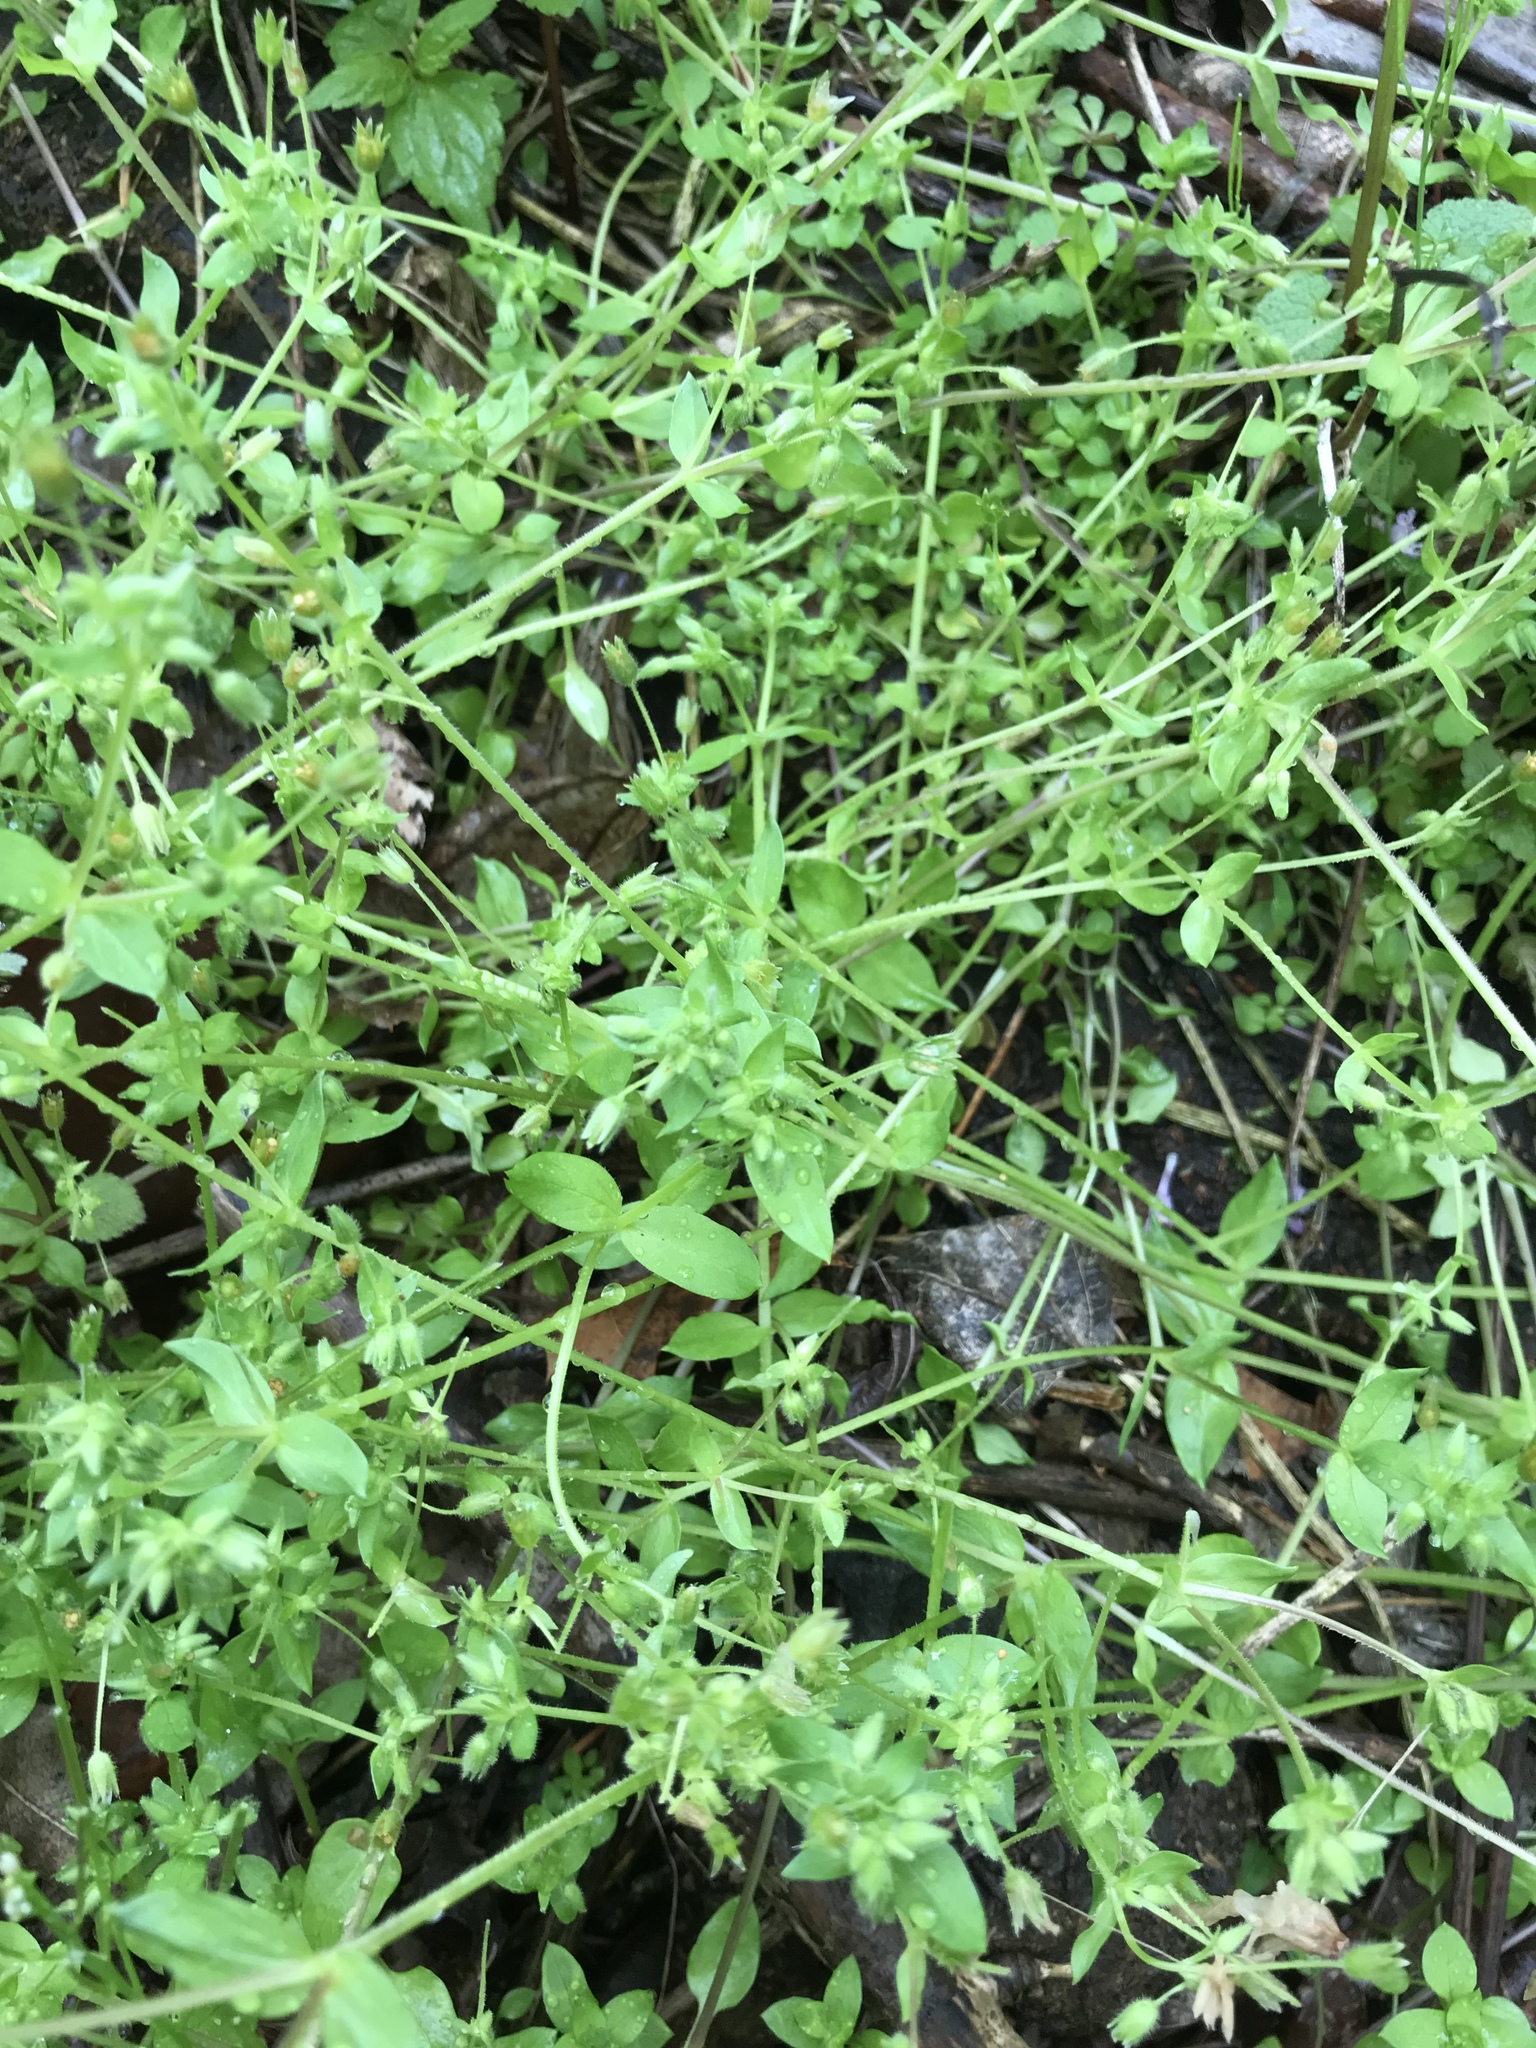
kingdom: Plantae
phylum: Tracheophyta
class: Magnoliopsida
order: Caryophyllales
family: Caryophyllaceae
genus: Stellaria
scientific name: Stellaria media
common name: Common chickweed
